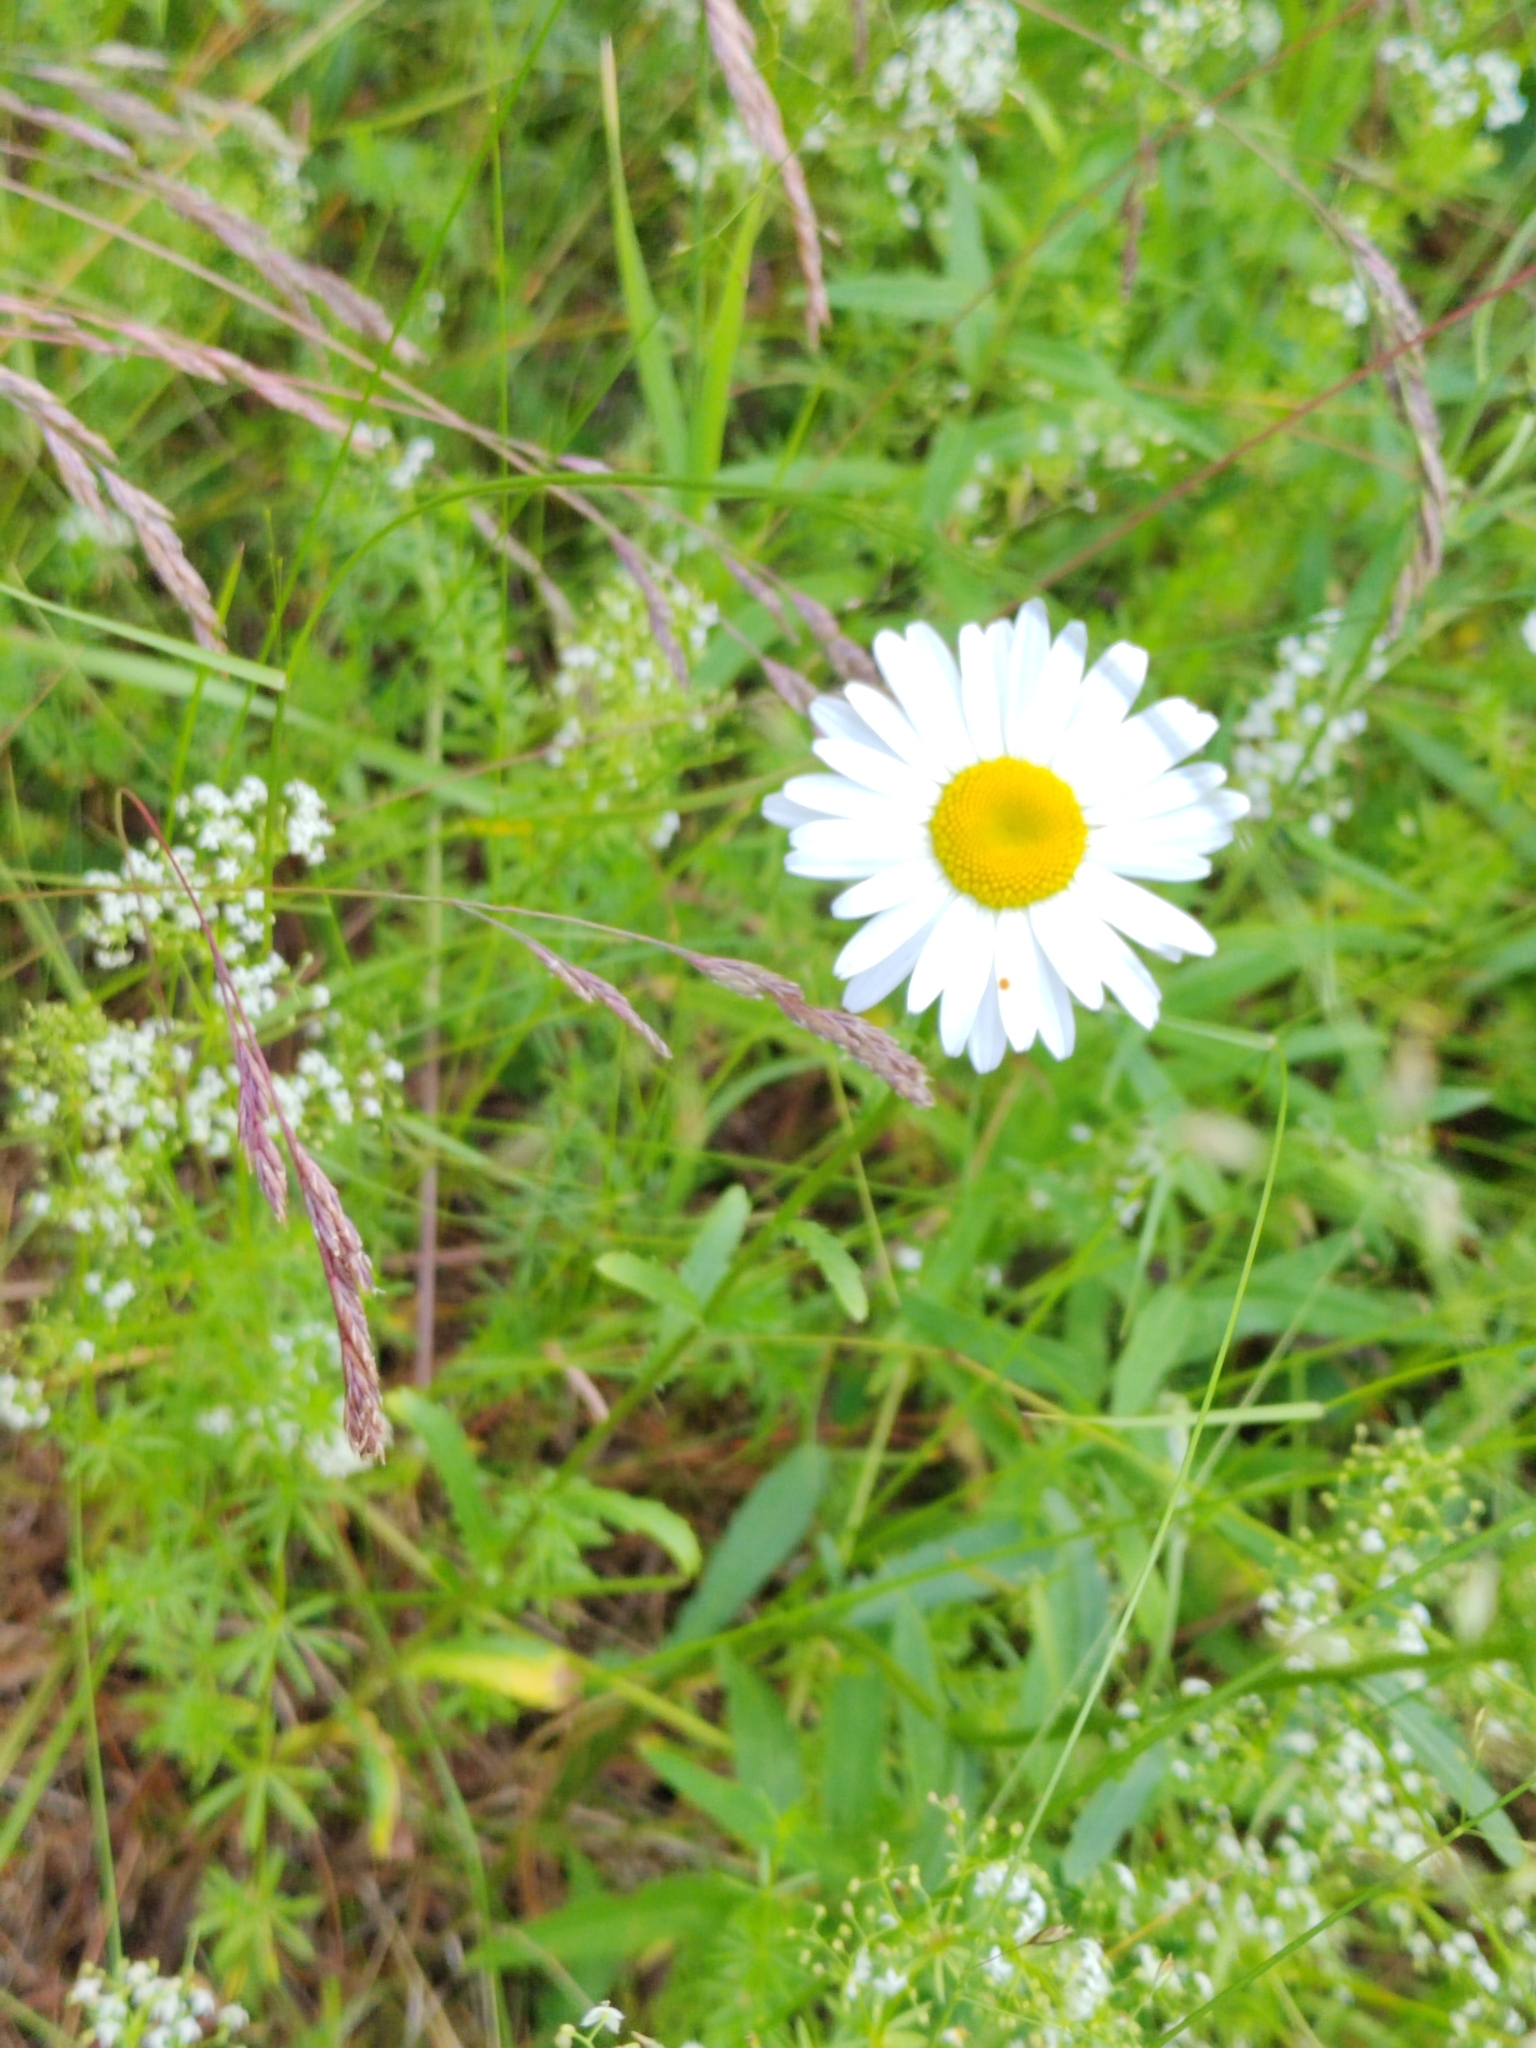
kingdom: Plantae
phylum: Tracheophyta
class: Magnoliopsida
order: Asterales
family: Asteraceae
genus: Leucanthemum
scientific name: Leucanthemum ircutianum
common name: Daisy
